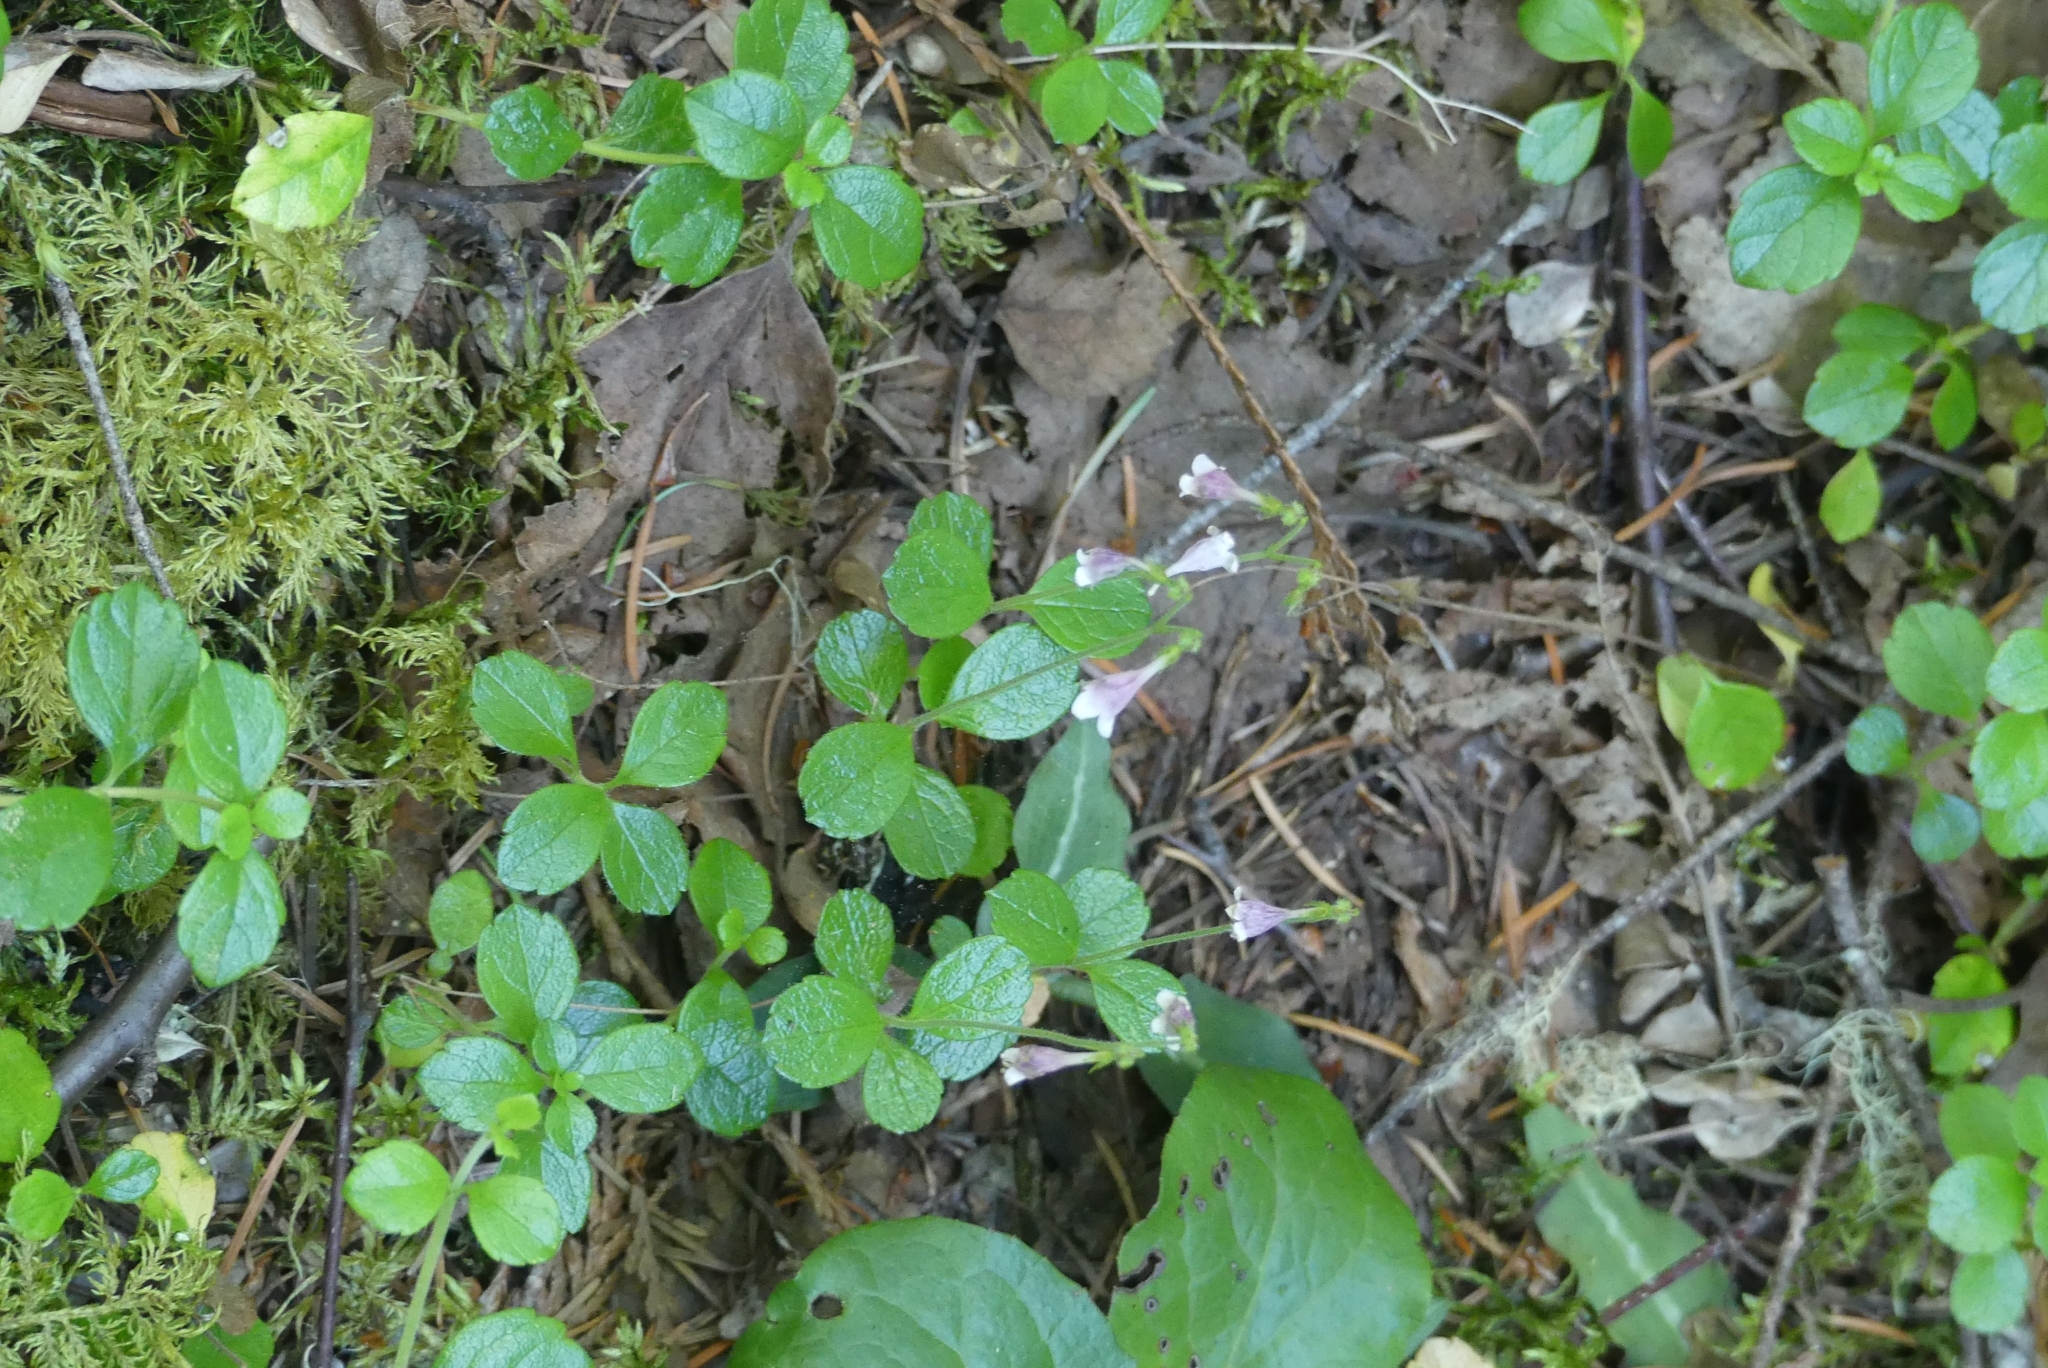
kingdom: Plantae
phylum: Tracheophyta
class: Magnoliopsida
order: Dipsacales
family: Caprifoliaceae
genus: Linnaea
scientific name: Linnaea borealis
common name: Twinflower
